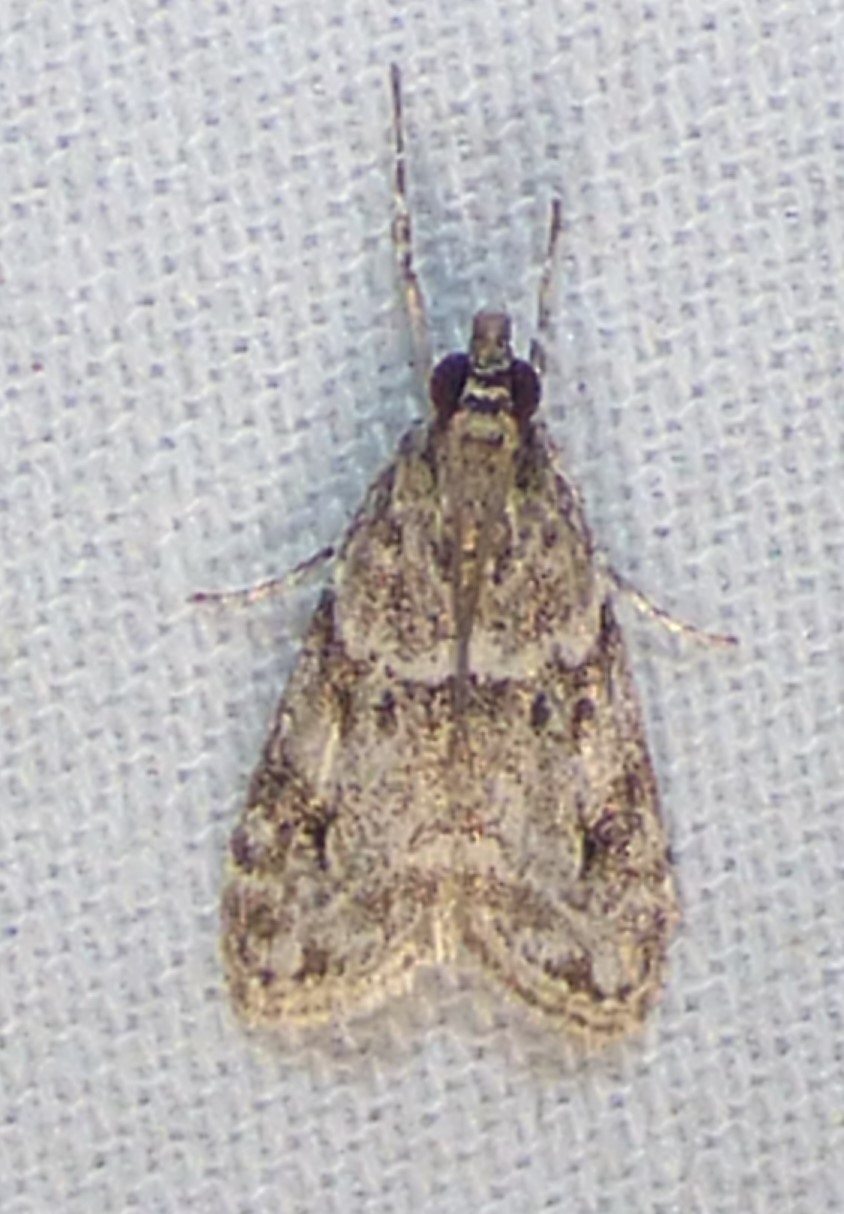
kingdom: Animalia
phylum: Arthropoda
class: Insecta
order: Lepidoptera
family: Crambidae
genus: Scoparia
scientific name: Scoparia biplagialis
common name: Double-striped scoparia moth
